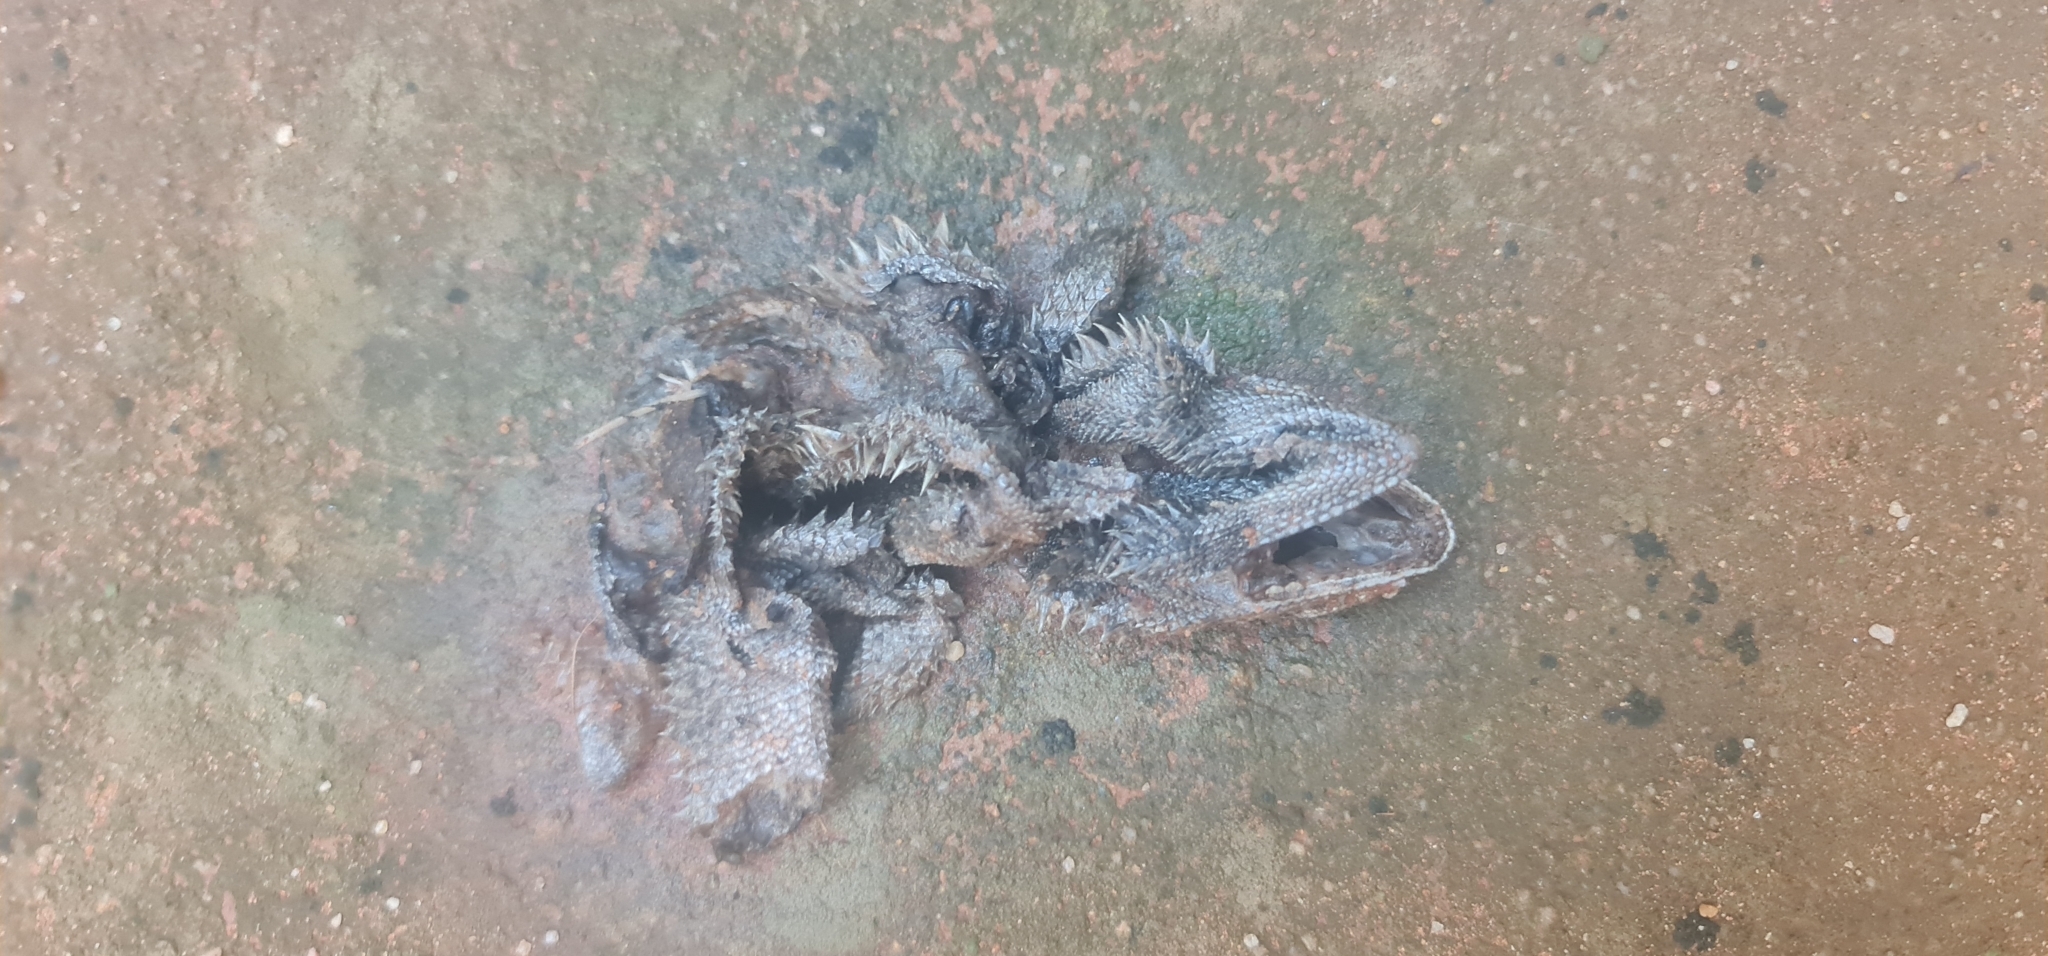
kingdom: Animalia
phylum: Chordata
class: Squamata
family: Agamidae
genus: Pogona
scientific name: Pogona vitticeps
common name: Central bearded dragon
